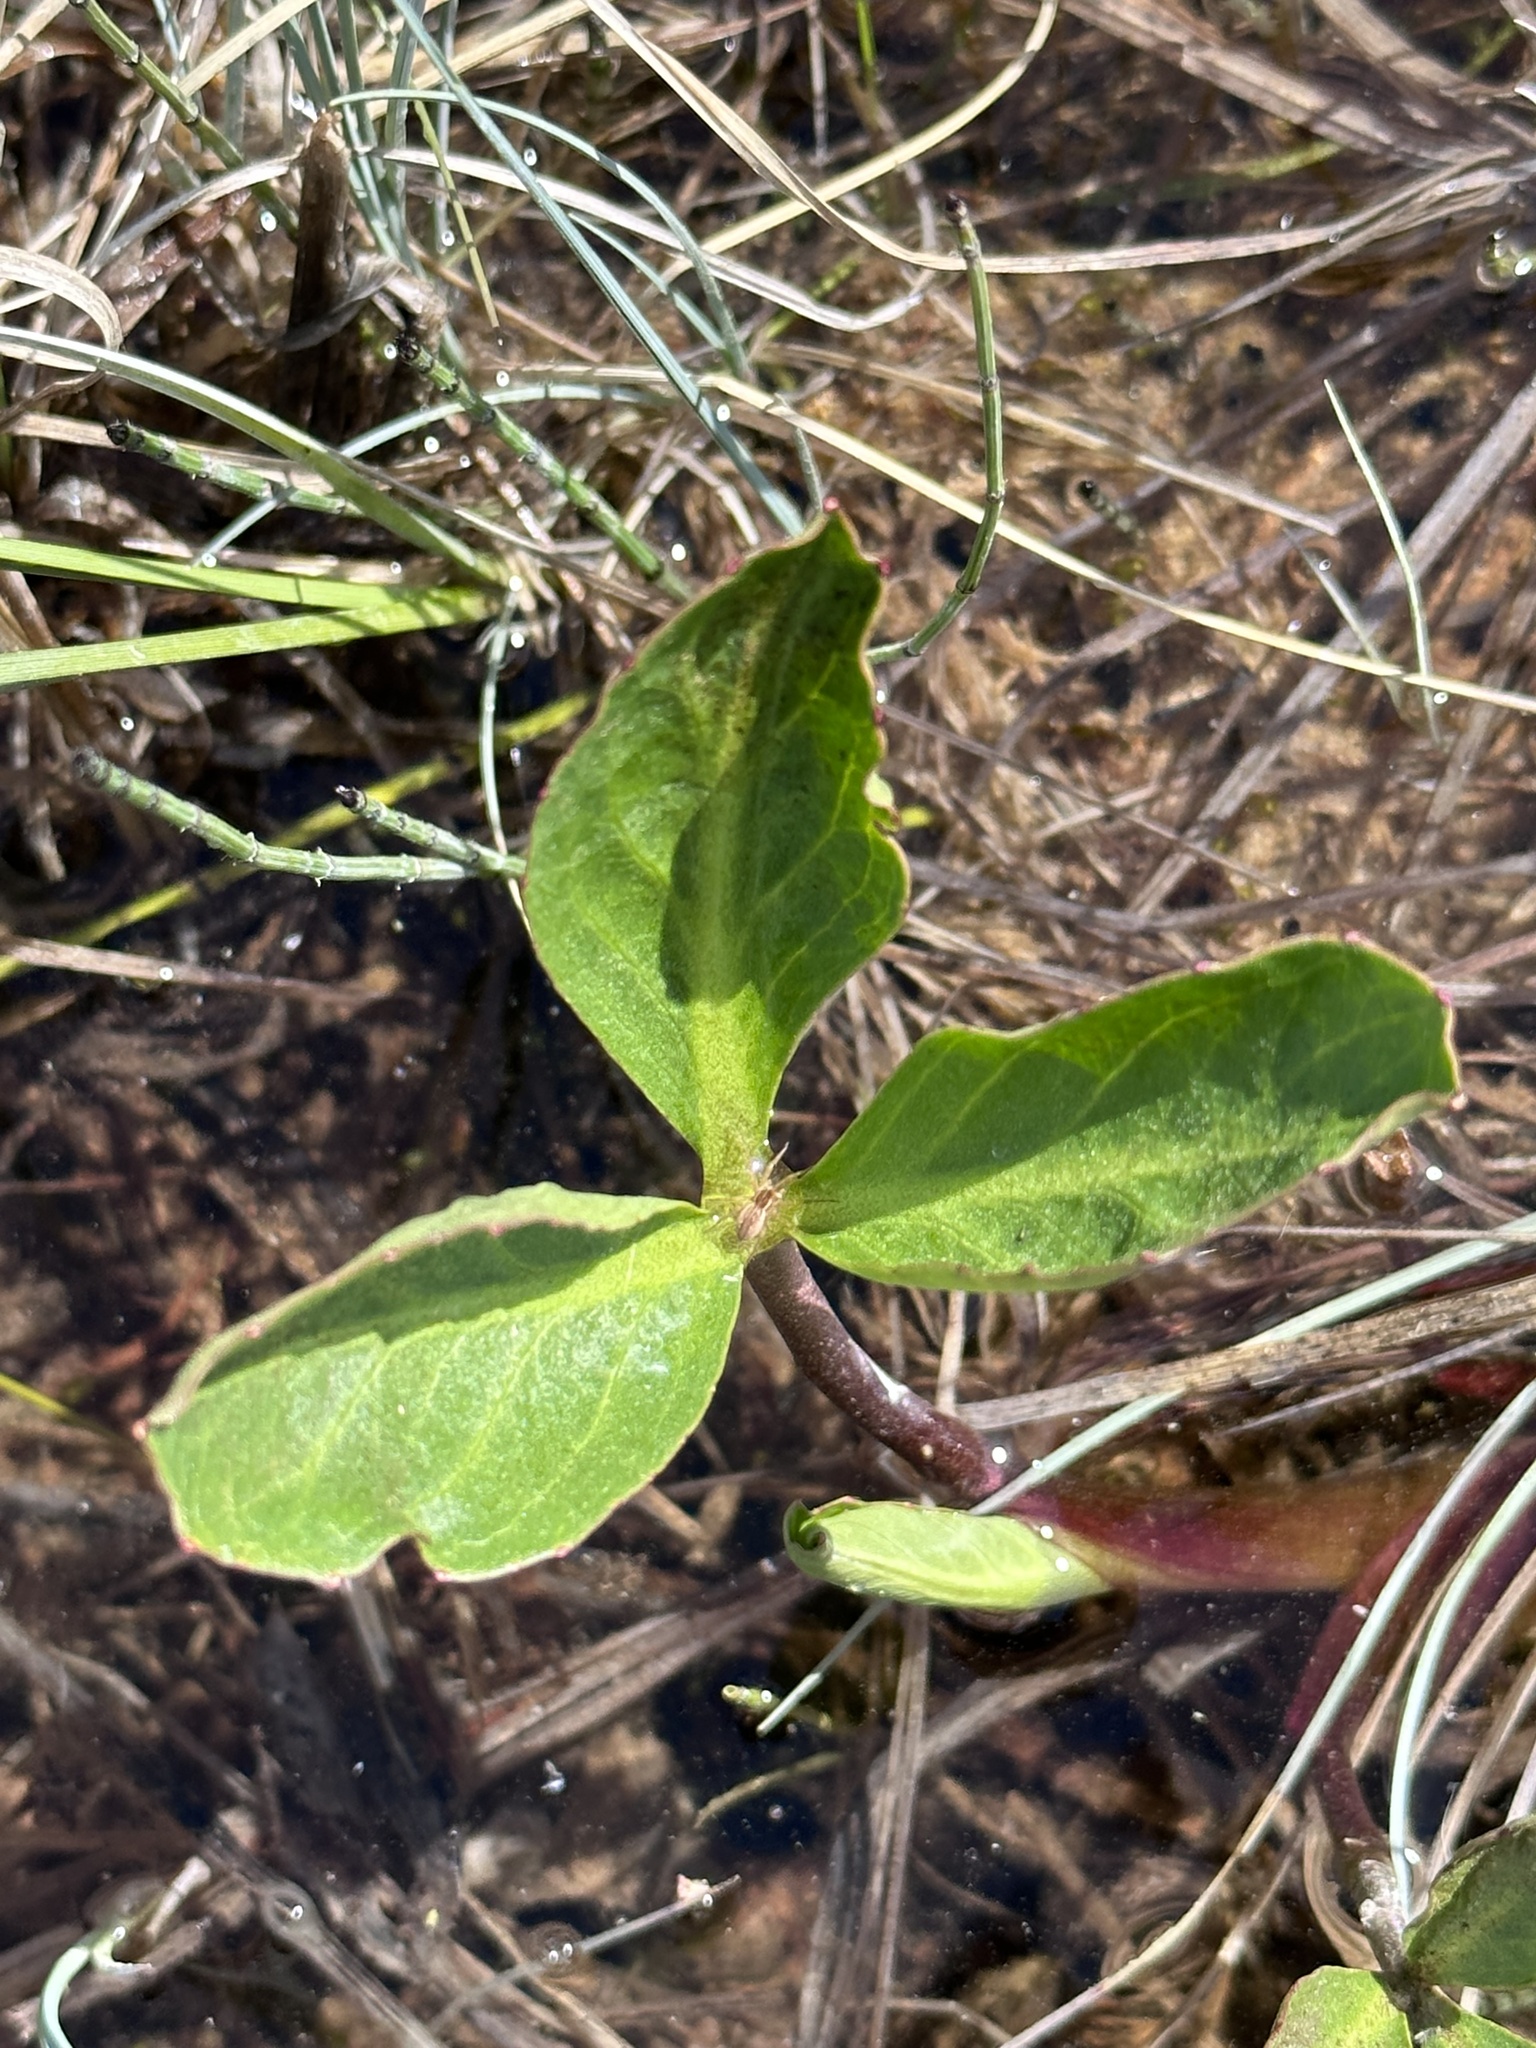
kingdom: Plantae
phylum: Tracheophyta
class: Magnoliopsida
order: Asterales
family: Menyanthaceae
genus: Menyanthes
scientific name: Menyanthes trifoliata
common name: Bogbean
